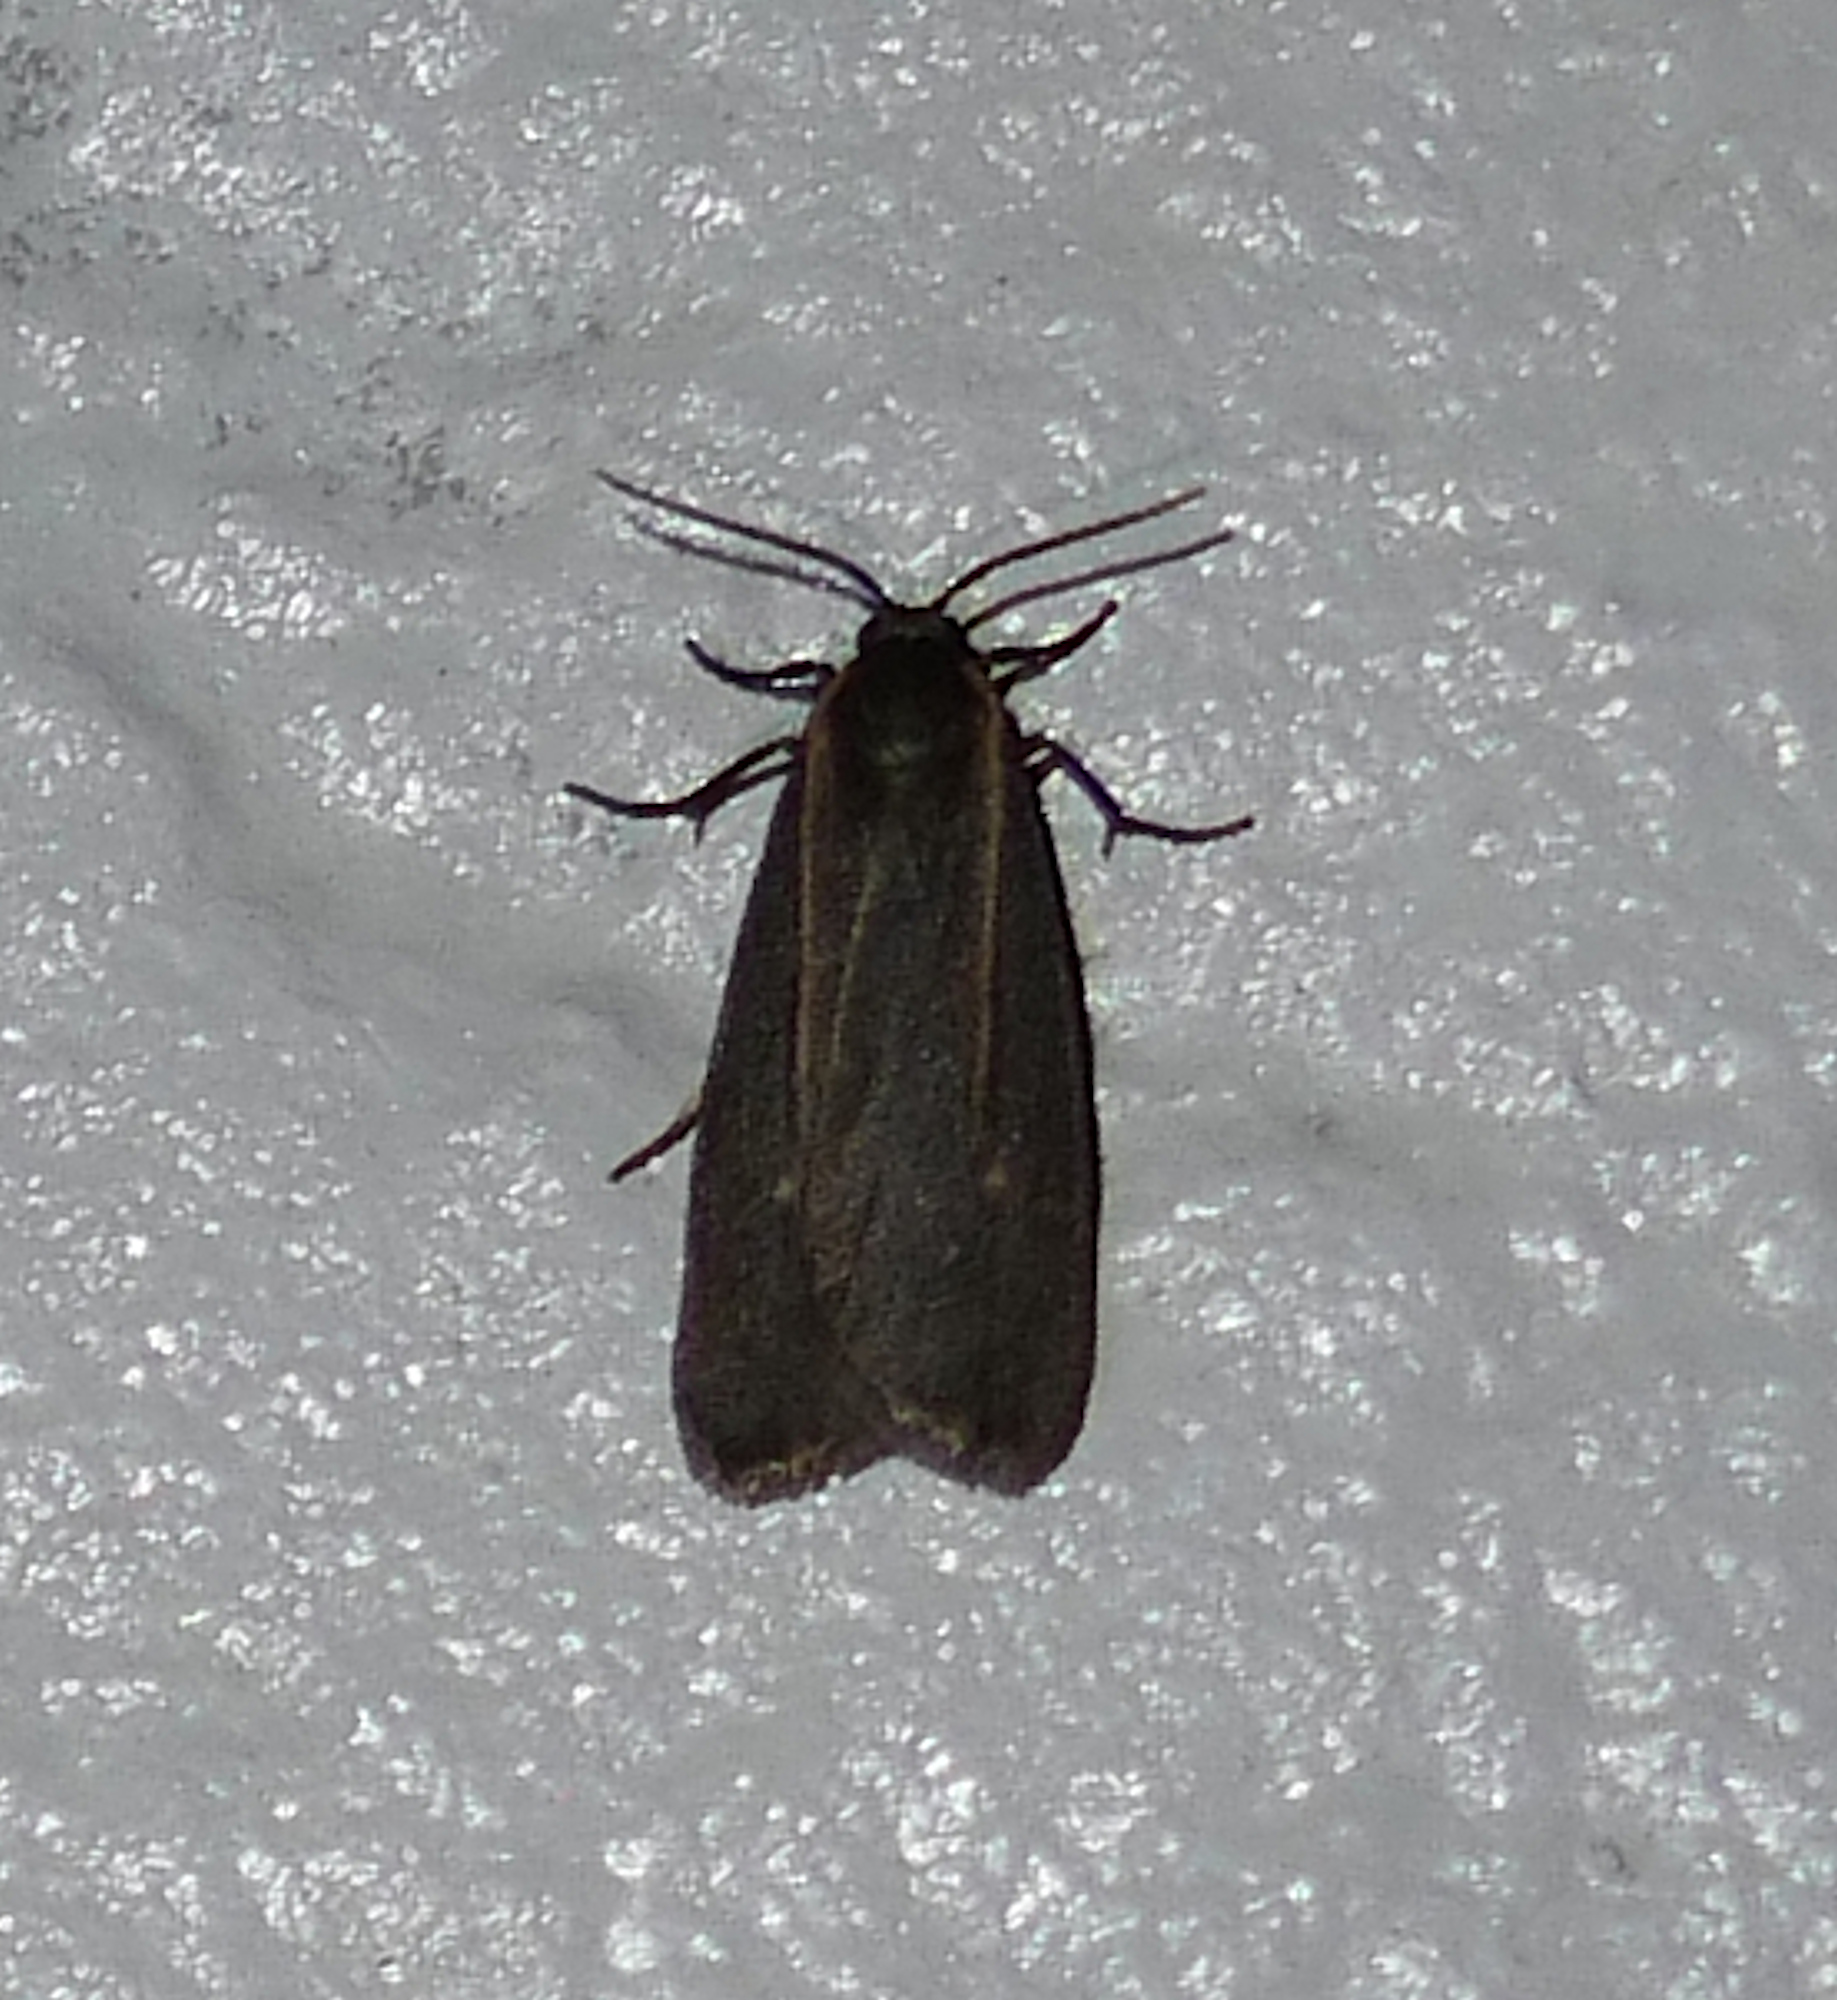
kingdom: Animalia
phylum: Arthropoda
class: Insecta
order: Lepidoptera
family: Erebidae
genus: Hypoprepia
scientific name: Hypoprepia inculta
